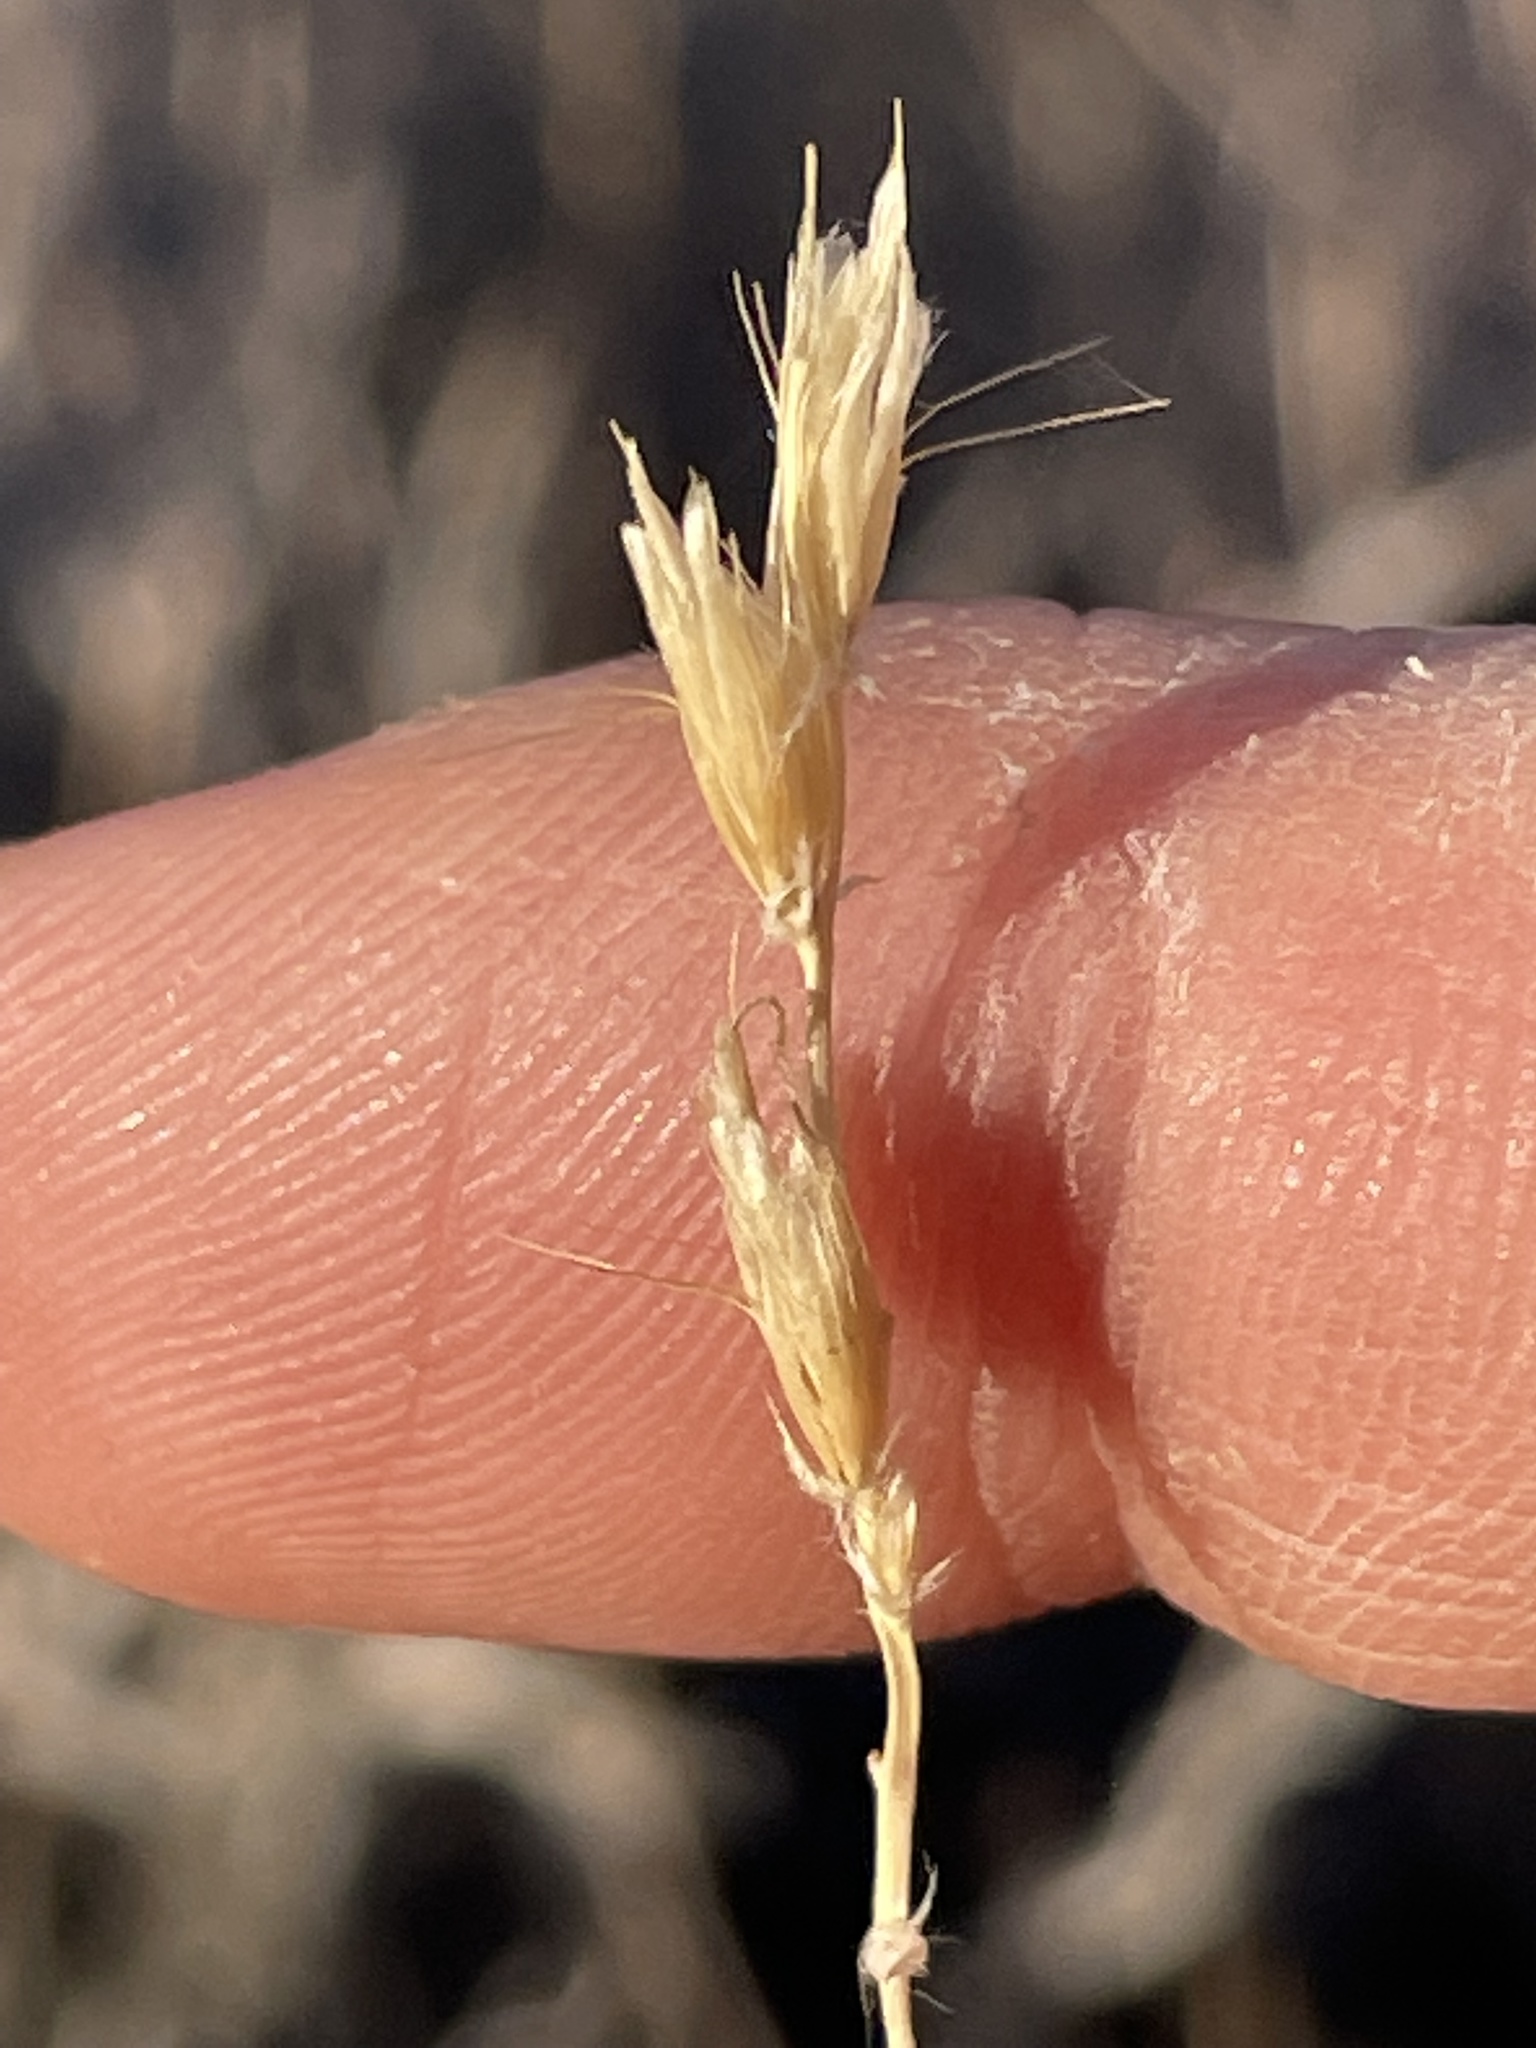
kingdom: Plantae
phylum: Tracheophyta
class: Liliopsida
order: Poales
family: Poaceae
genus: Hilaria
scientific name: Hilaria rigida
